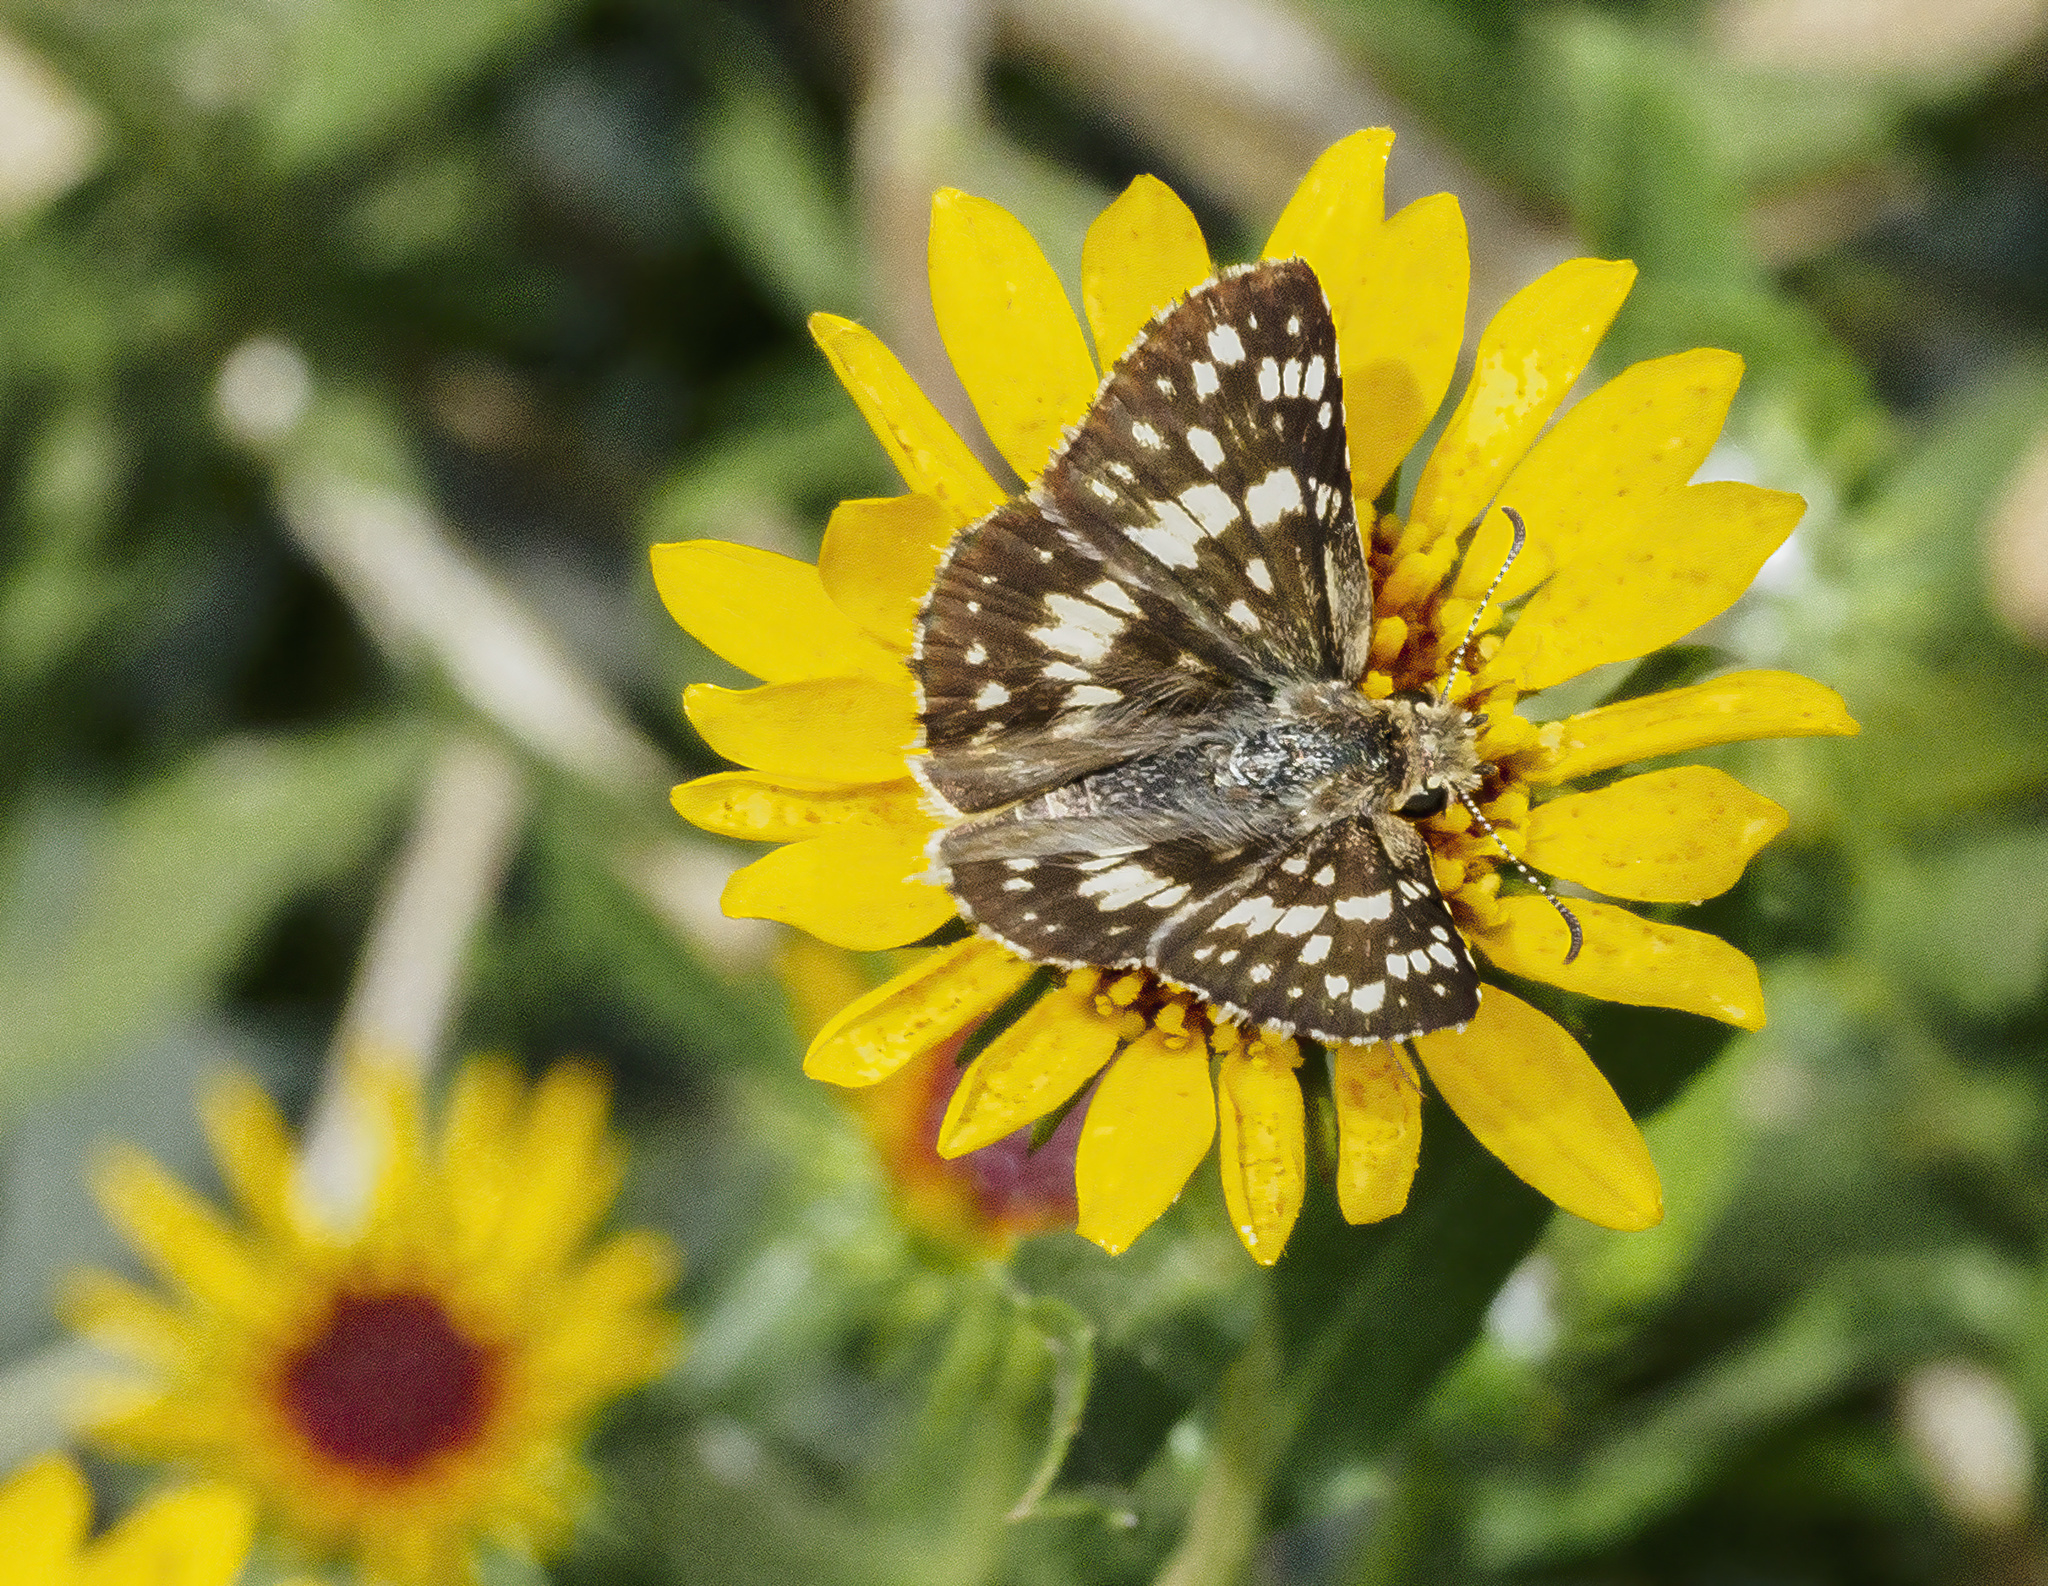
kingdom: Animalia
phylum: Arthropoda
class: Insecta
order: Lepidoptera
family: Hesperiidae
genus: Burnsius
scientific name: Burnsius orcynoides
